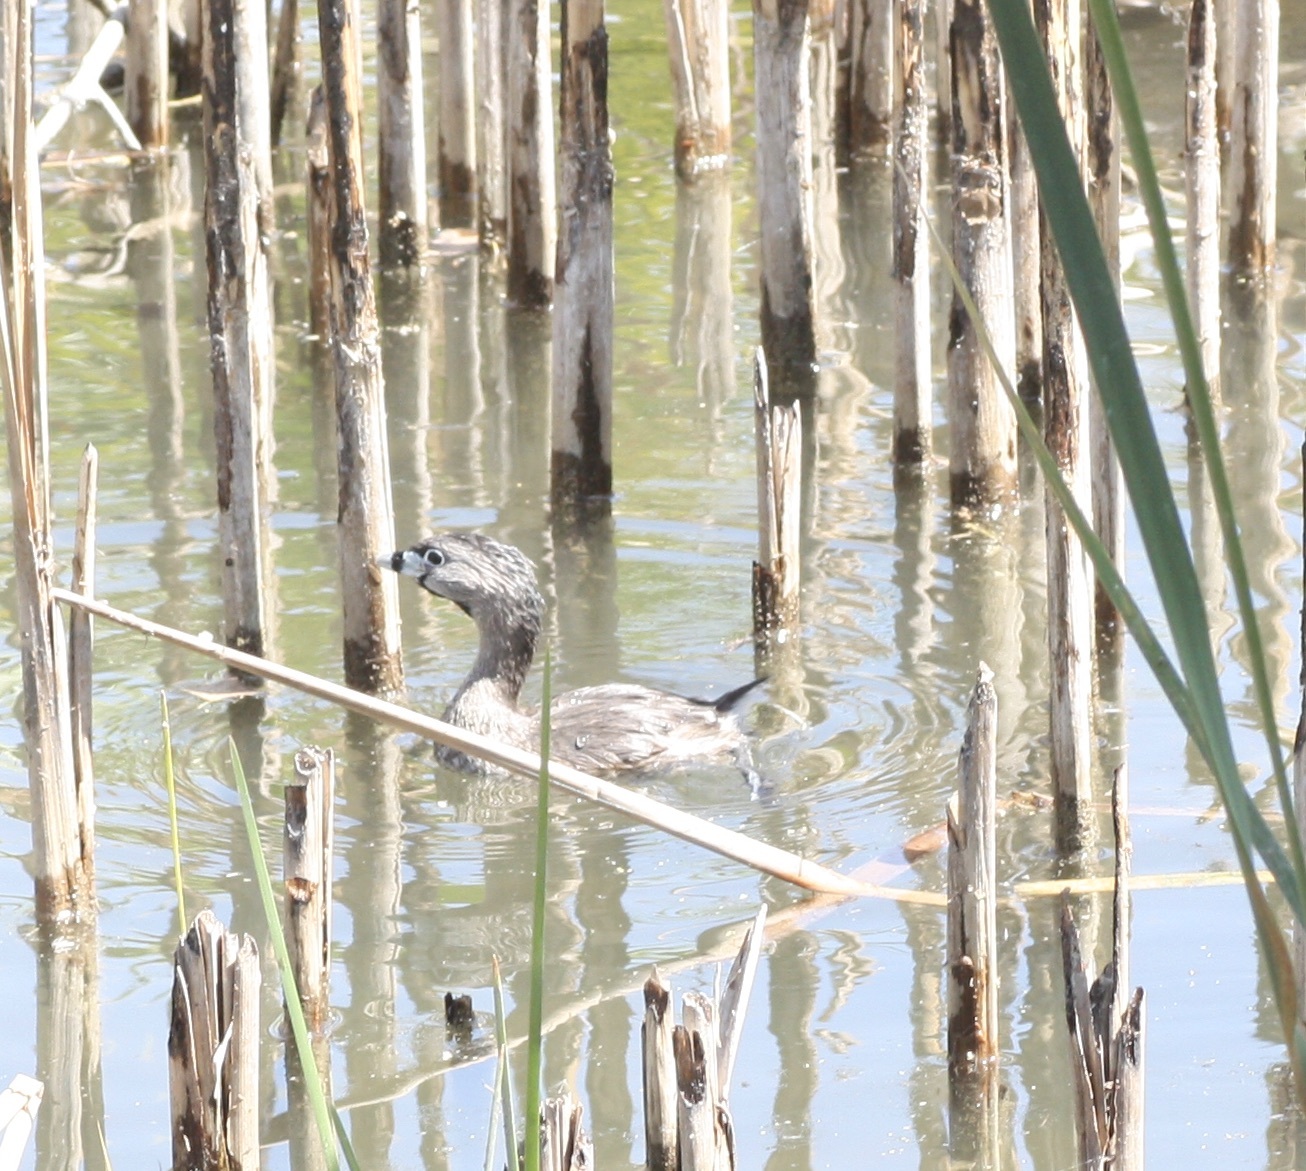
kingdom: Animalia
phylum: Chordata
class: Aves
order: Podicipediformes
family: Podicipedidae
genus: Podilymbus
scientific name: Podilymbus podiceps
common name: Pied-billed grebe
